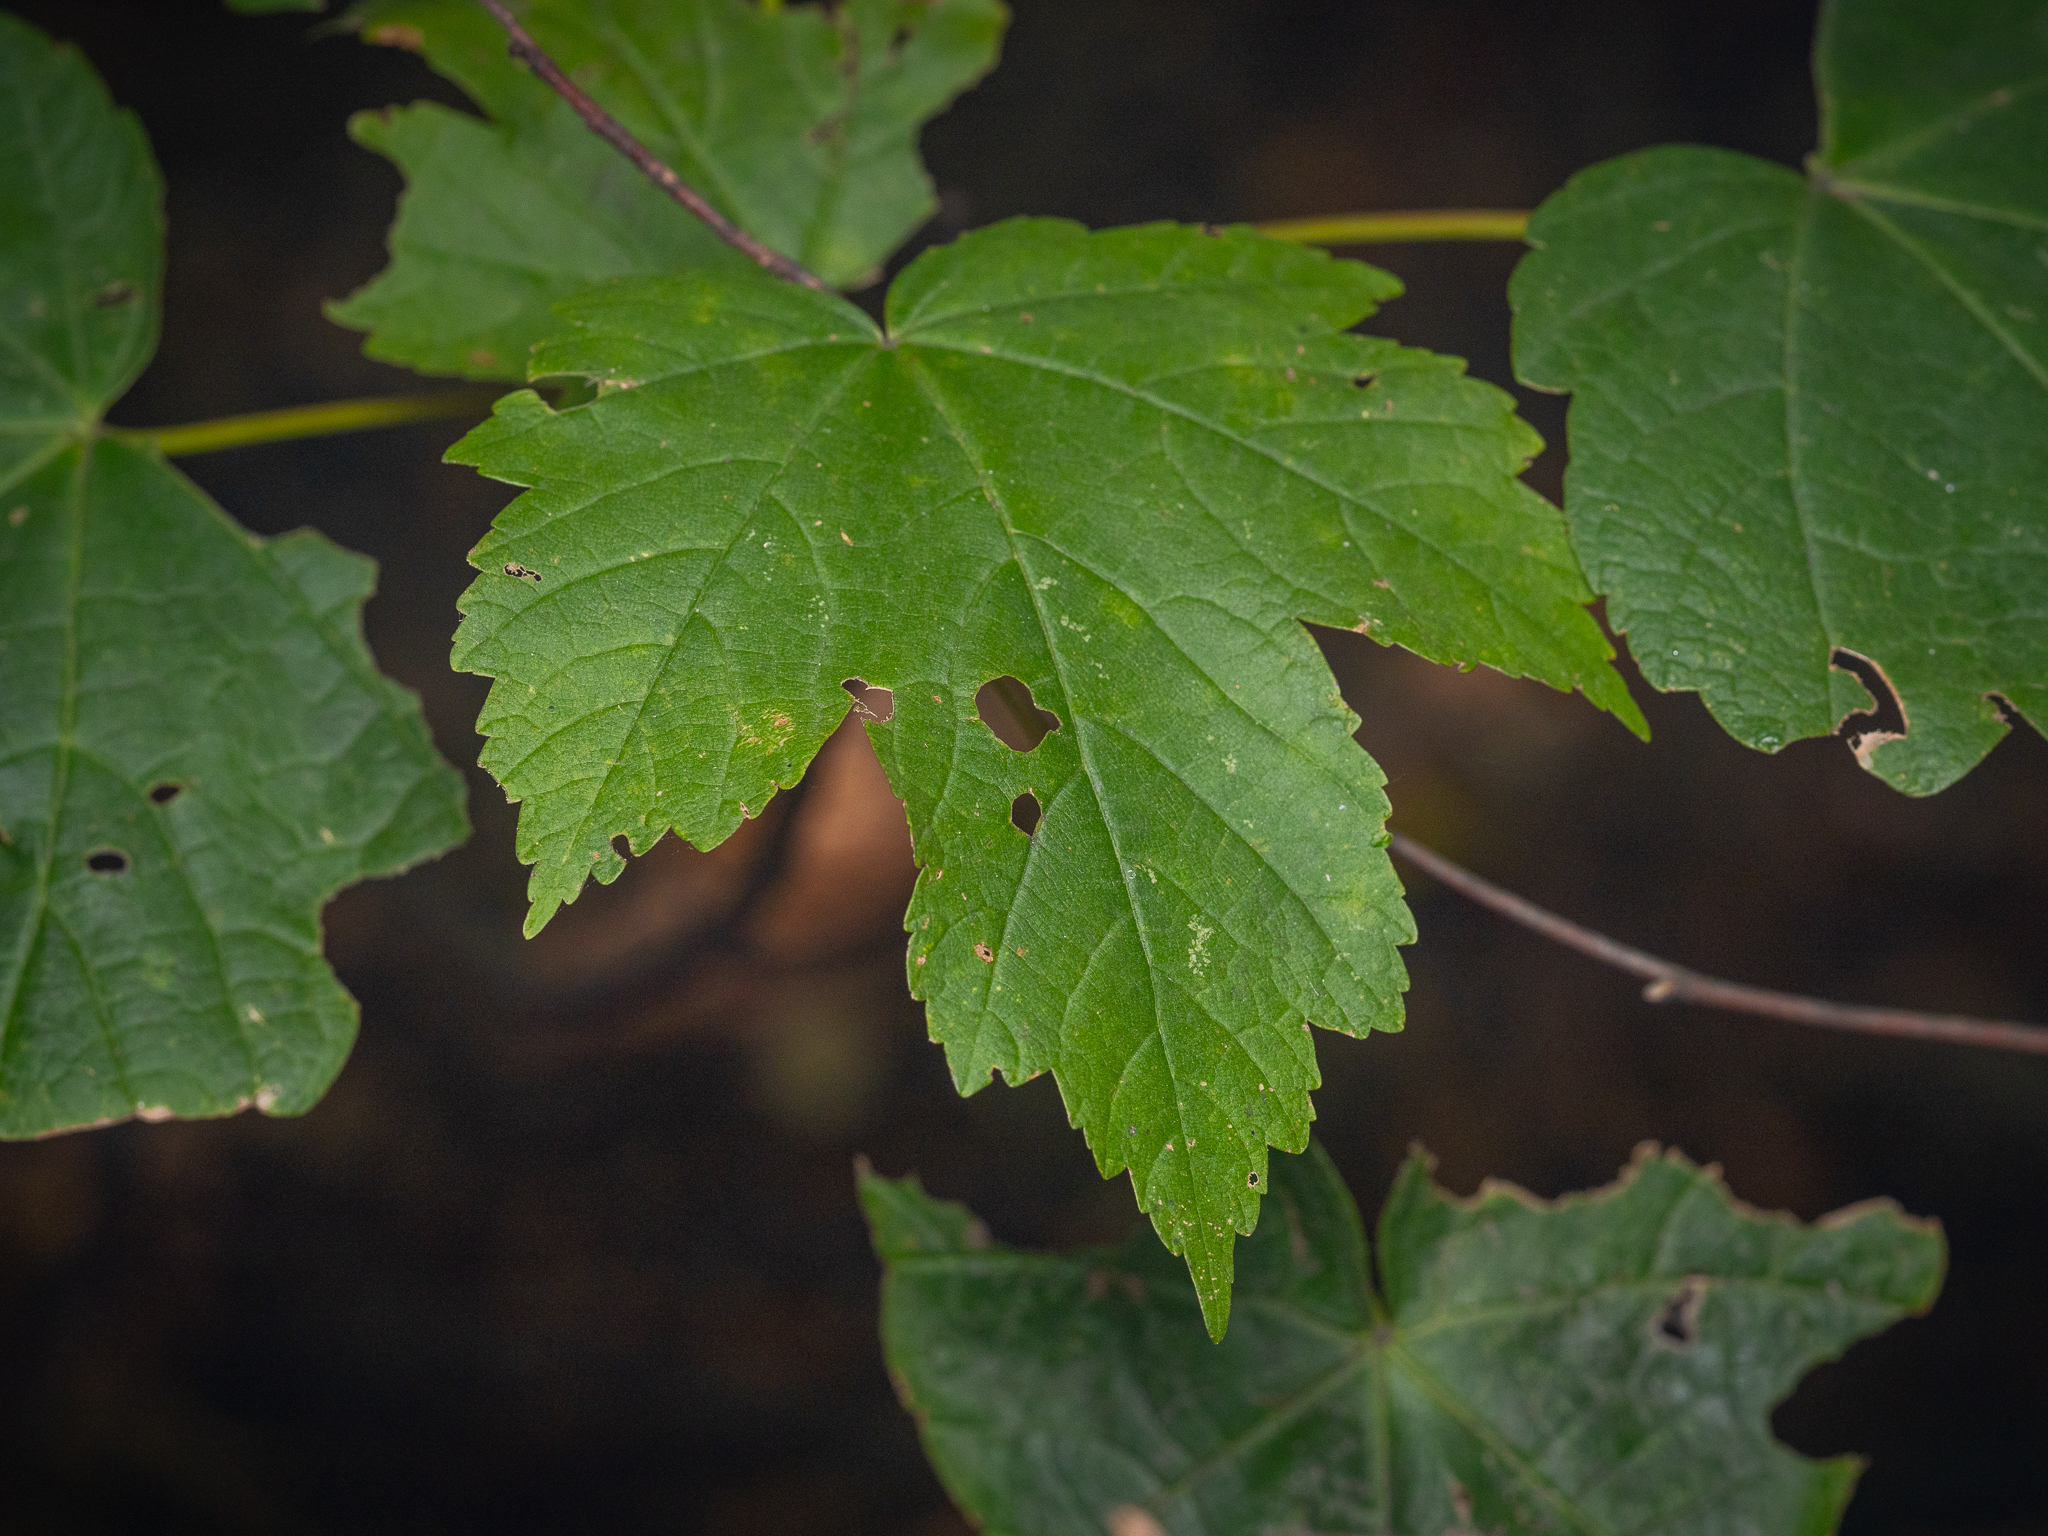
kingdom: Plantae
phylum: Tracheophyta
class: Magnoliopsida
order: Sapindales
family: Sapindaceae
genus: Acer
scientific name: Acer pseudoplatanus
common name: Sycamore
